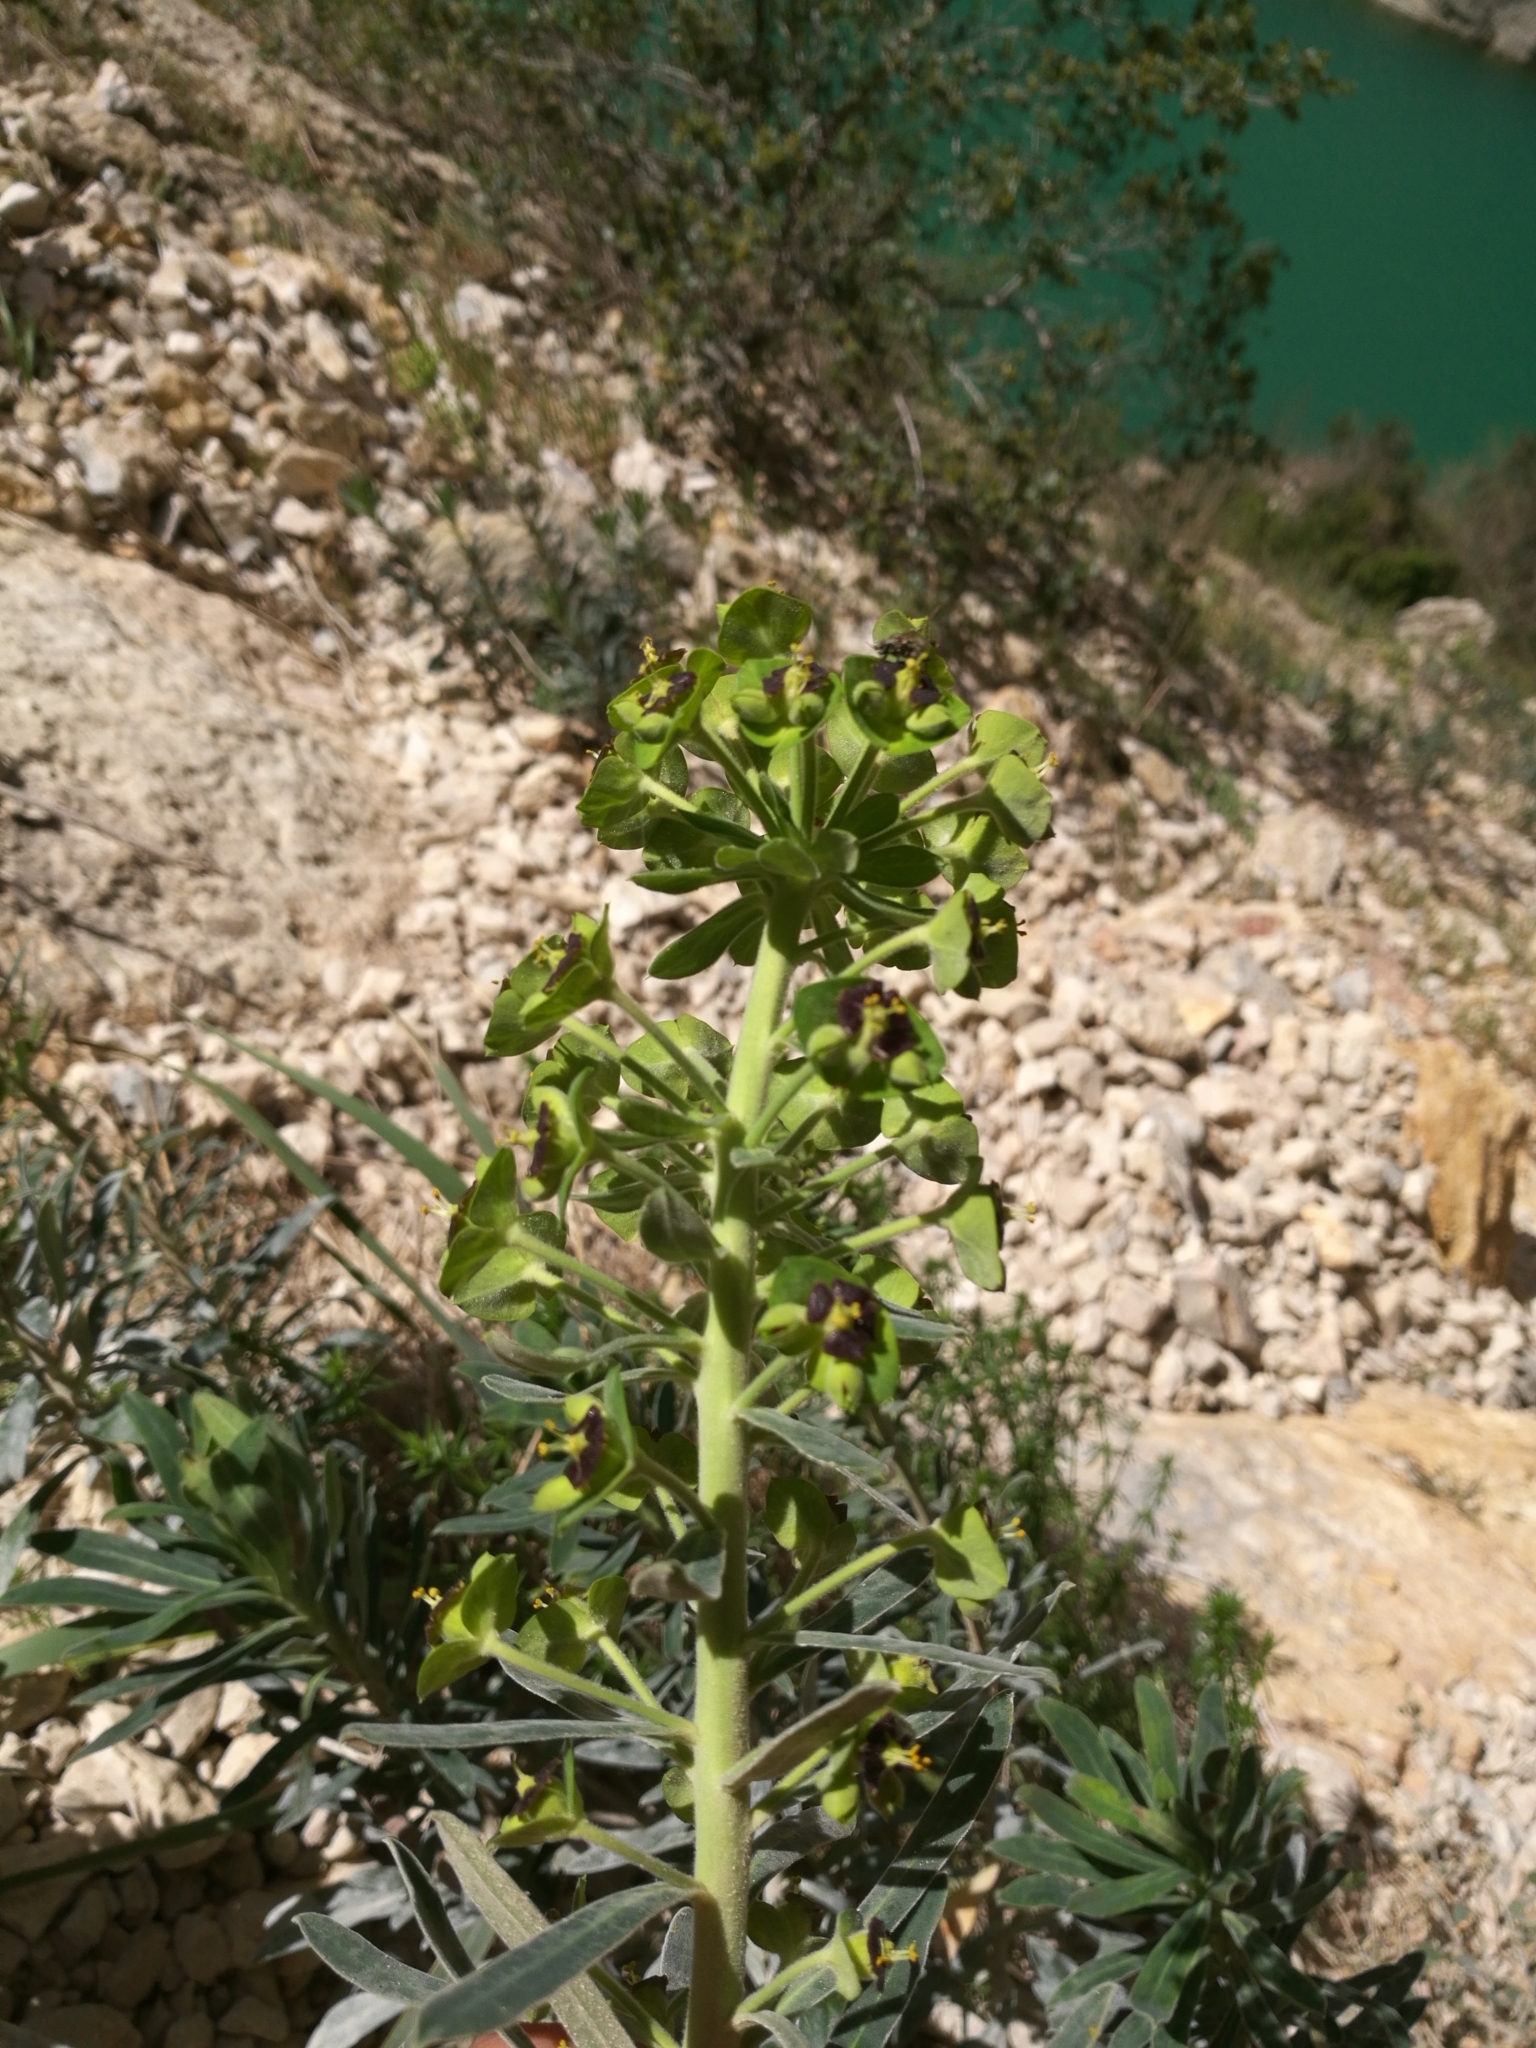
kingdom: Plantae
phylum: Tracheophyta
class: Magnoliopsida
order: Malpighiales
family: Euphorbiaceae
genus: Euphorbia
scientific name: Euphorbia characias
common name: Mediterranean spurge
